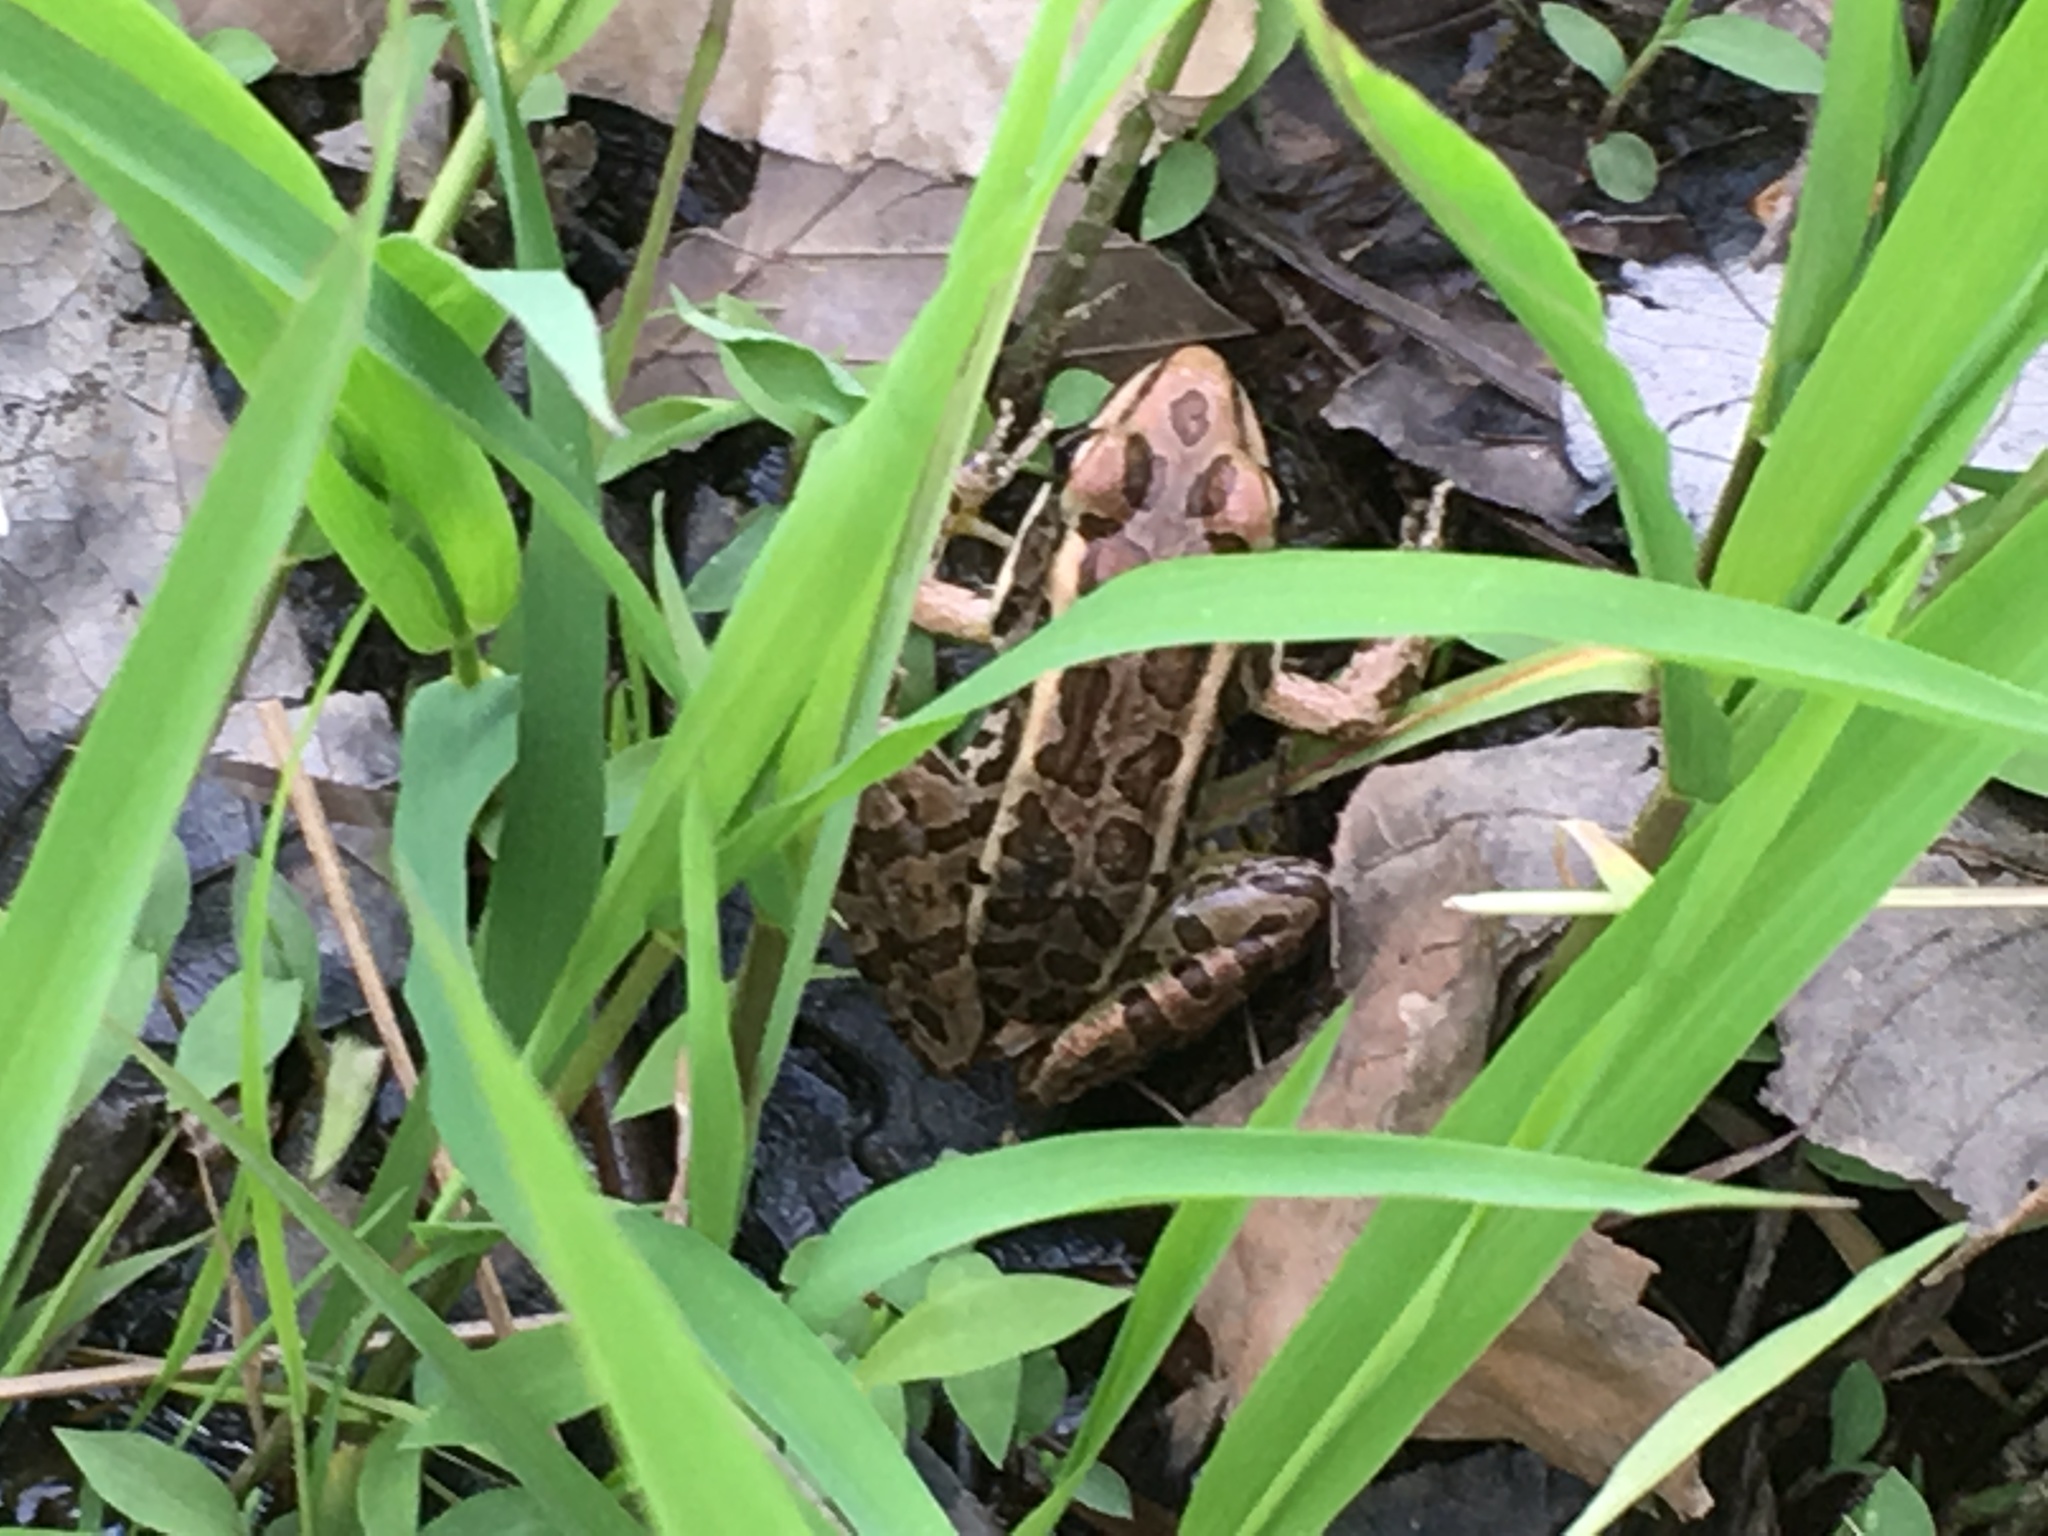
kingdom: Animalia
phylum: Chordata
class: Amphibia
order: Anura
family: Ranidae
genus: Lithobates
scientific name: Lithobates palustris
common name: Pickerel frog
